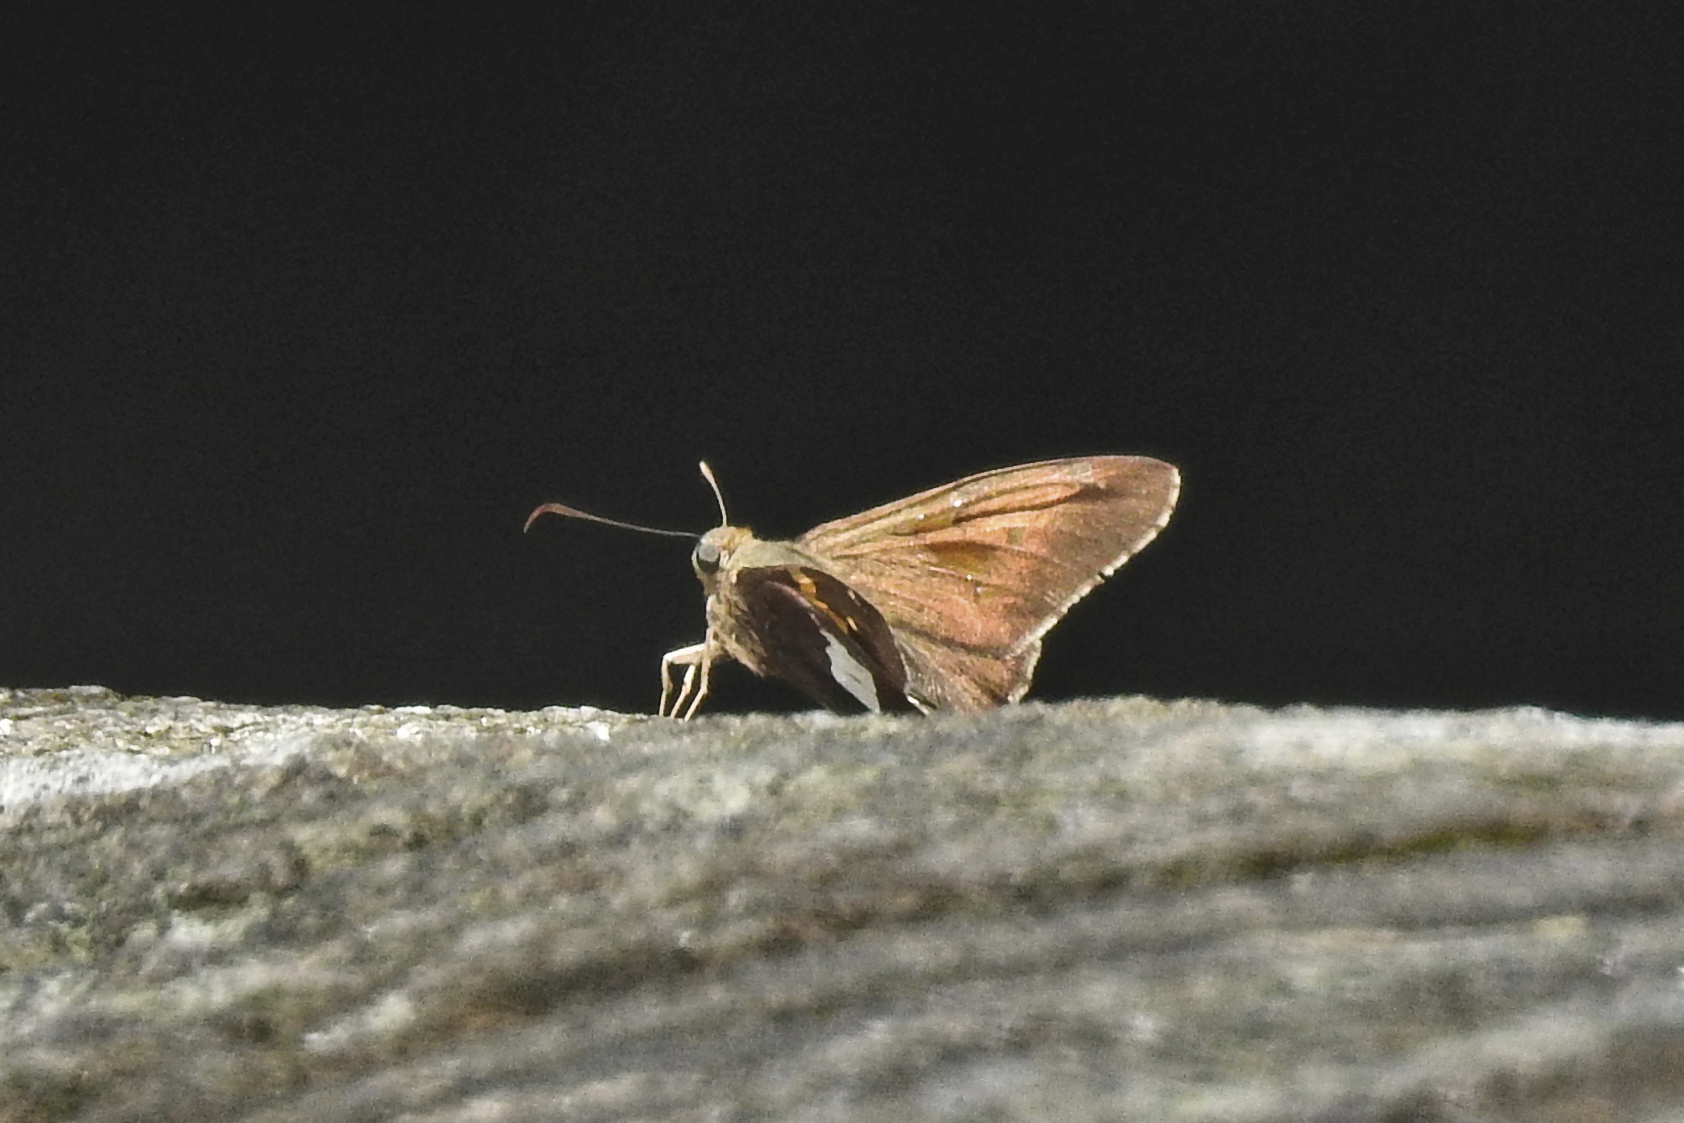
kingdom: Animalia
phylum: Arthropoda
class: Insecta
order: Lepidoptera
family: Hesperiidae
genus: Epargyreus
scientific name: Epargyreus clarus
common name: Silver-spotted skipper
